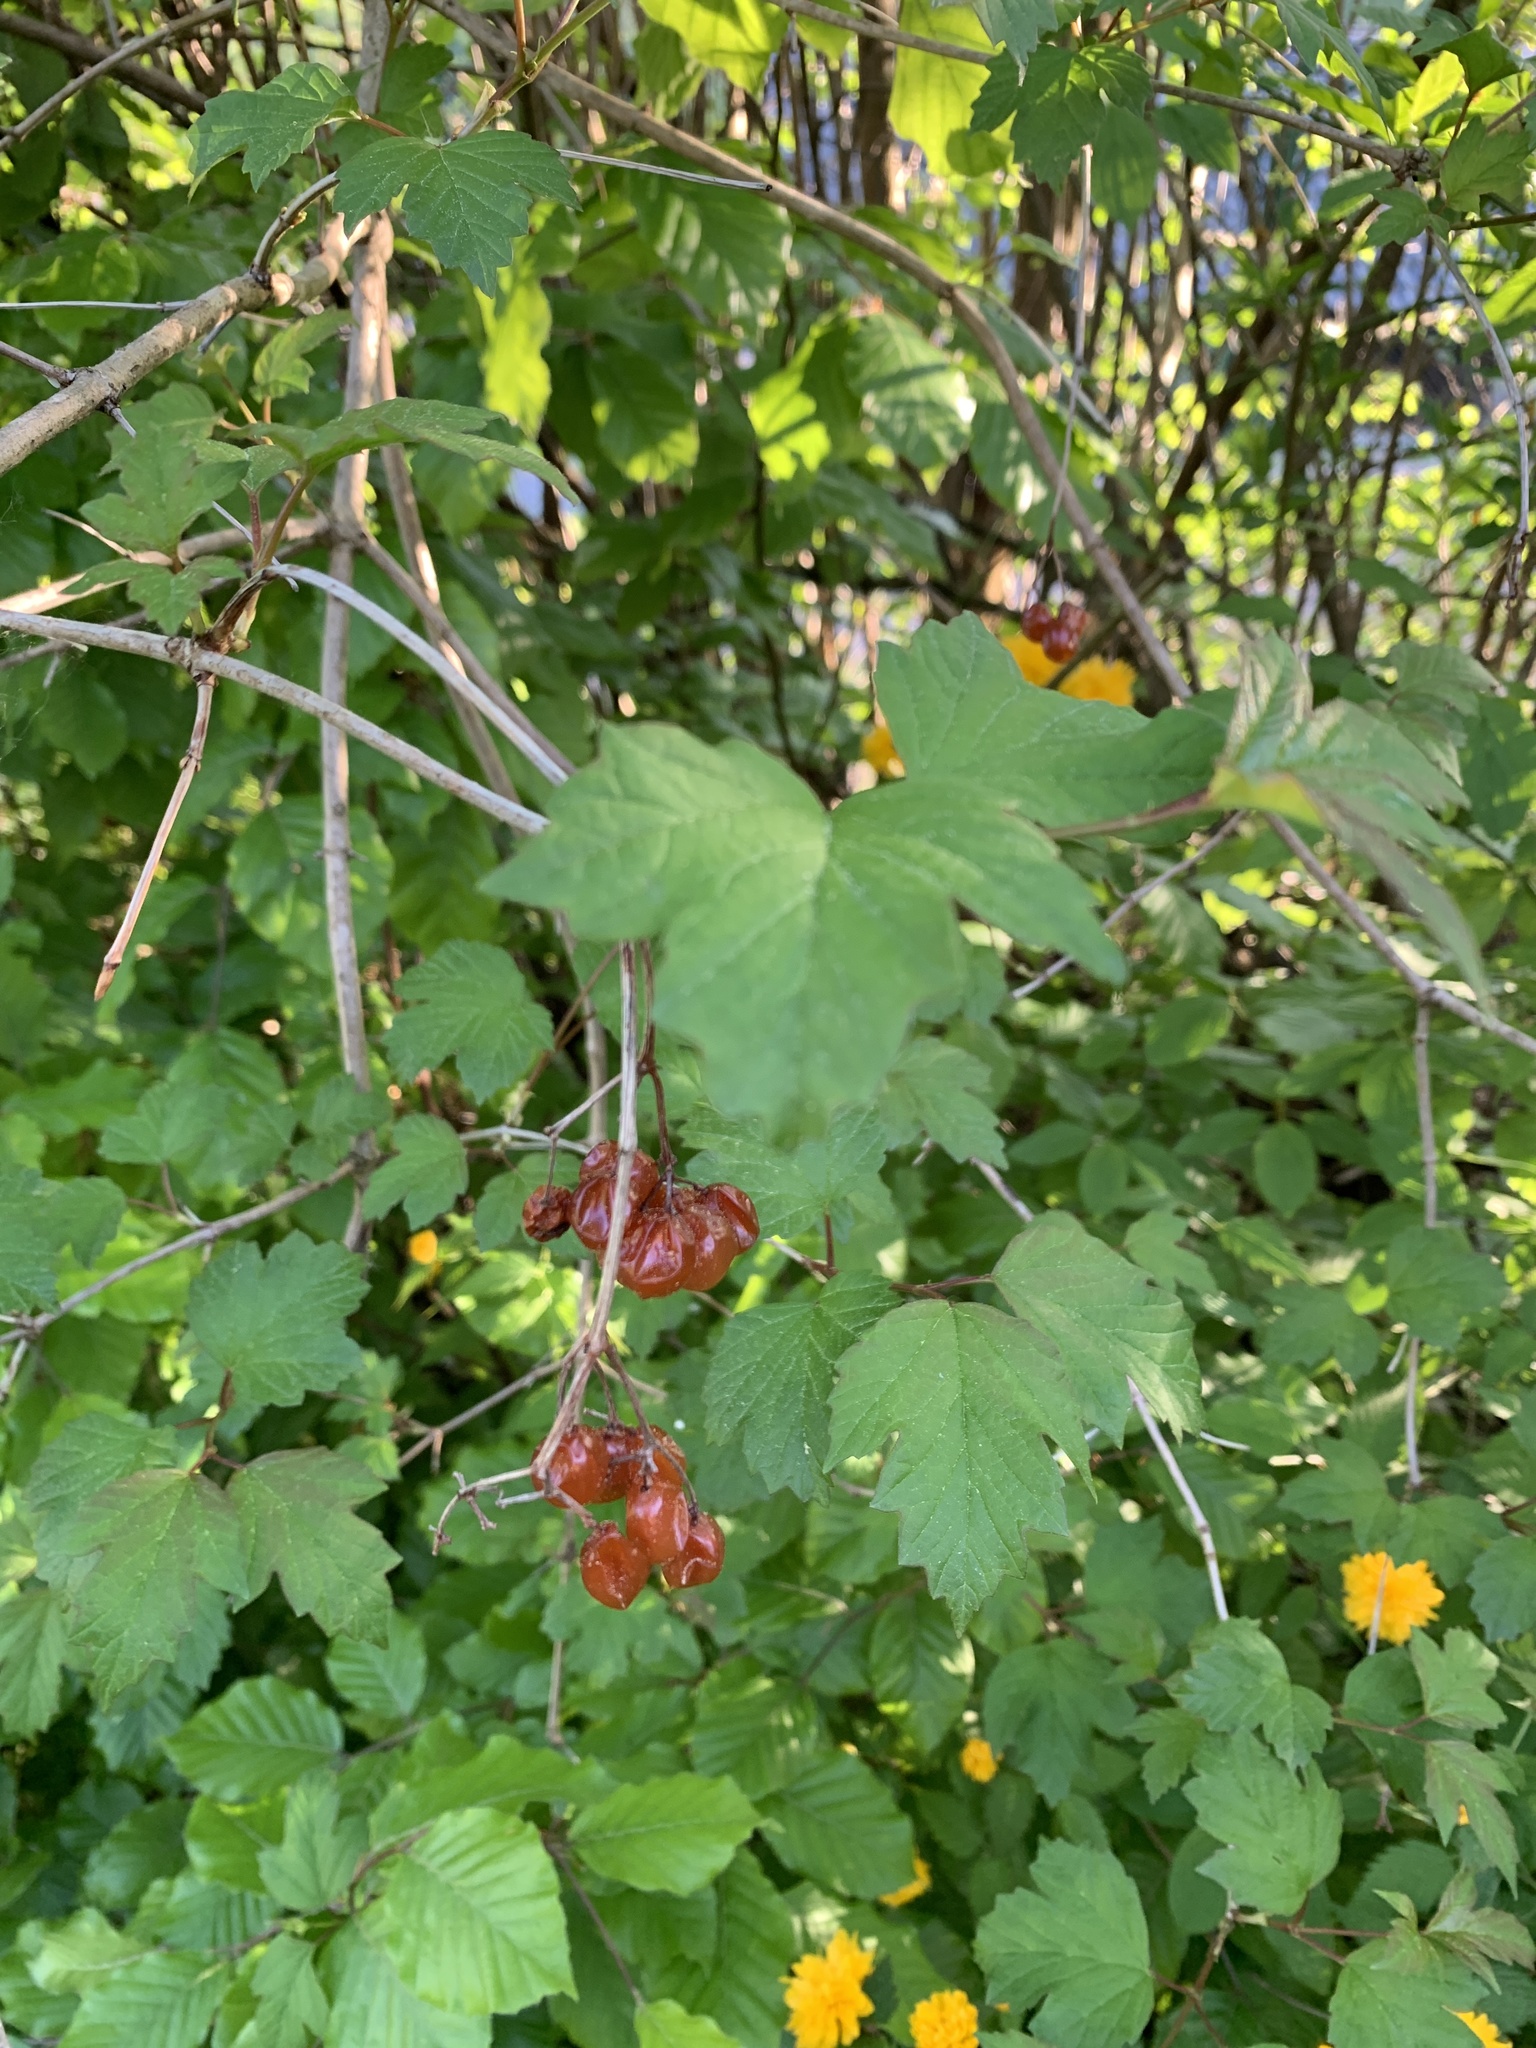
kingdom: Plantae
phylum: Tracheophyta
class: Magnoliopsida
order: Dipsacales
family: Viburnaceae
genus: Viburnum
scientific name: Viburnum opulus
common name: Guelder-rose
